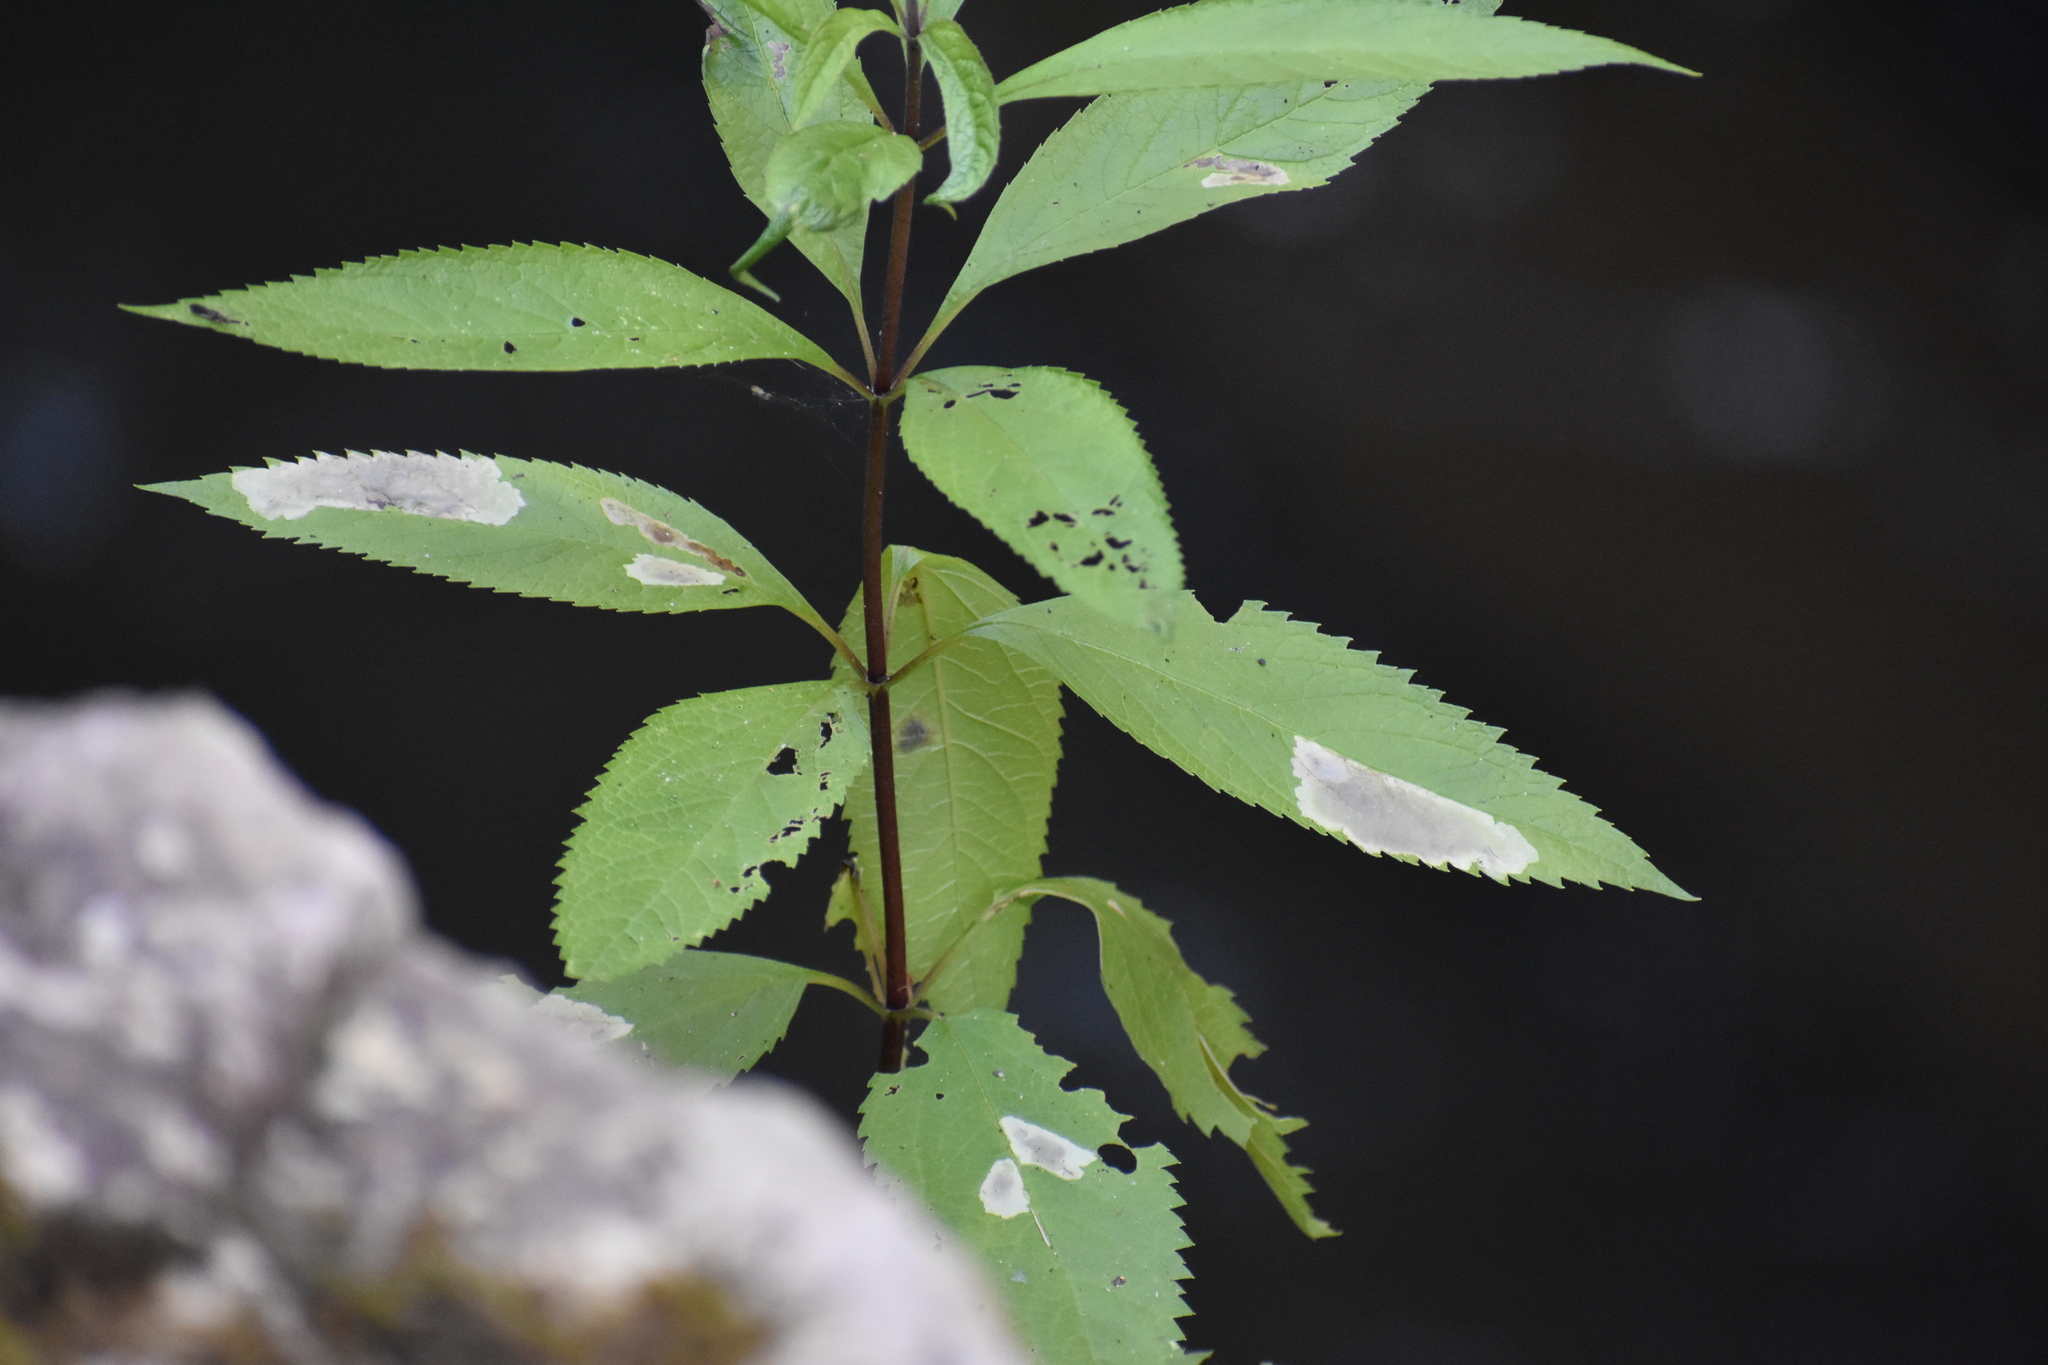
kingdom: Animalia
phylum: Arthropoda
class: Insecta
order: Diptera
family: Agromyzidae
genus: Calycomyza
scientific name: Calycomyza flavinotum
